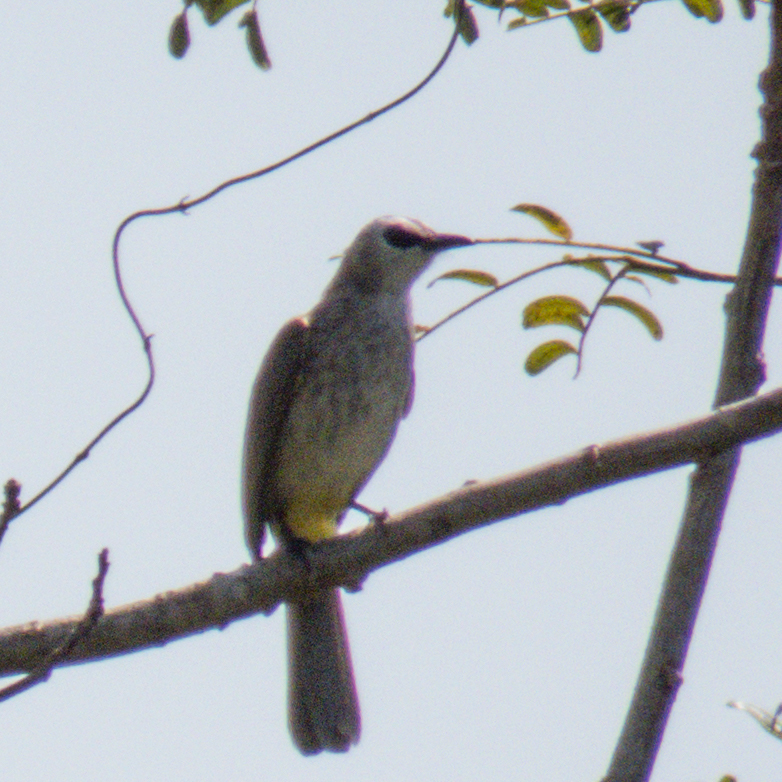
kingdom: Animalia
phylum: Chordata
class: Aves
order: Passeriformes
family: Pycnonotidae
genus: Pycnonotus
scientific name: Pycnonotus goiavier
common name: Yellow-vented bulbul
